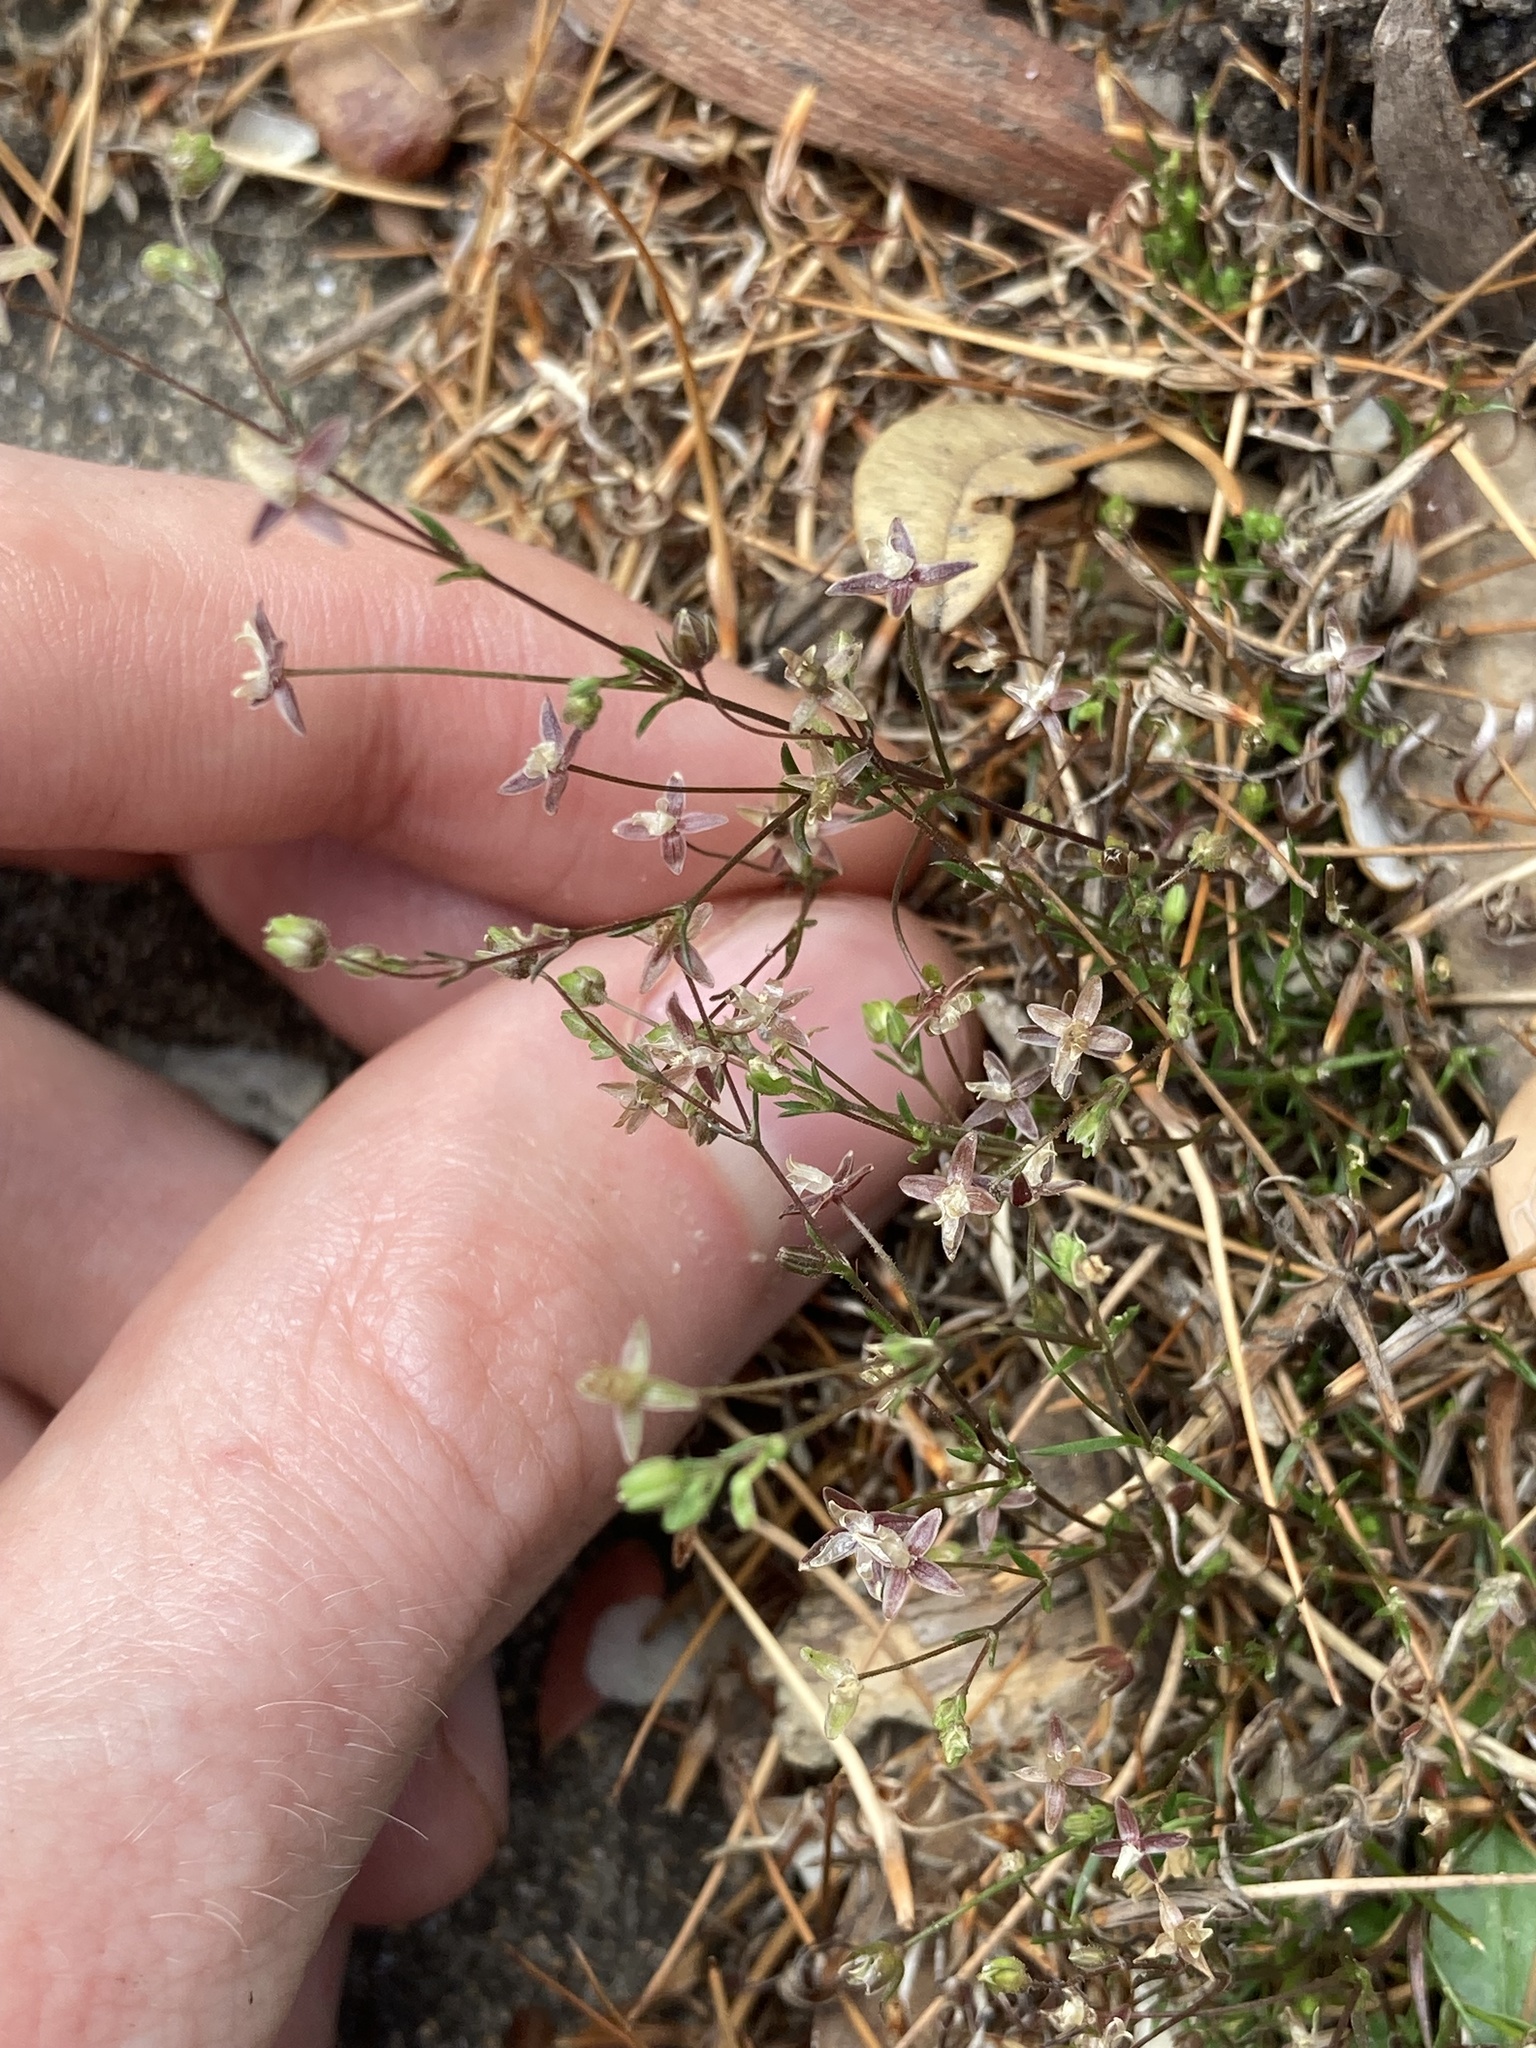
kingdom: Plantae
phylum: Tracheophyta
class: Magnoliopsida
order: Caryophyllales
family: Caryophyllaceae
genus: Sagina
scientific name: Sagina apetala
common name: Annual pearlwort
